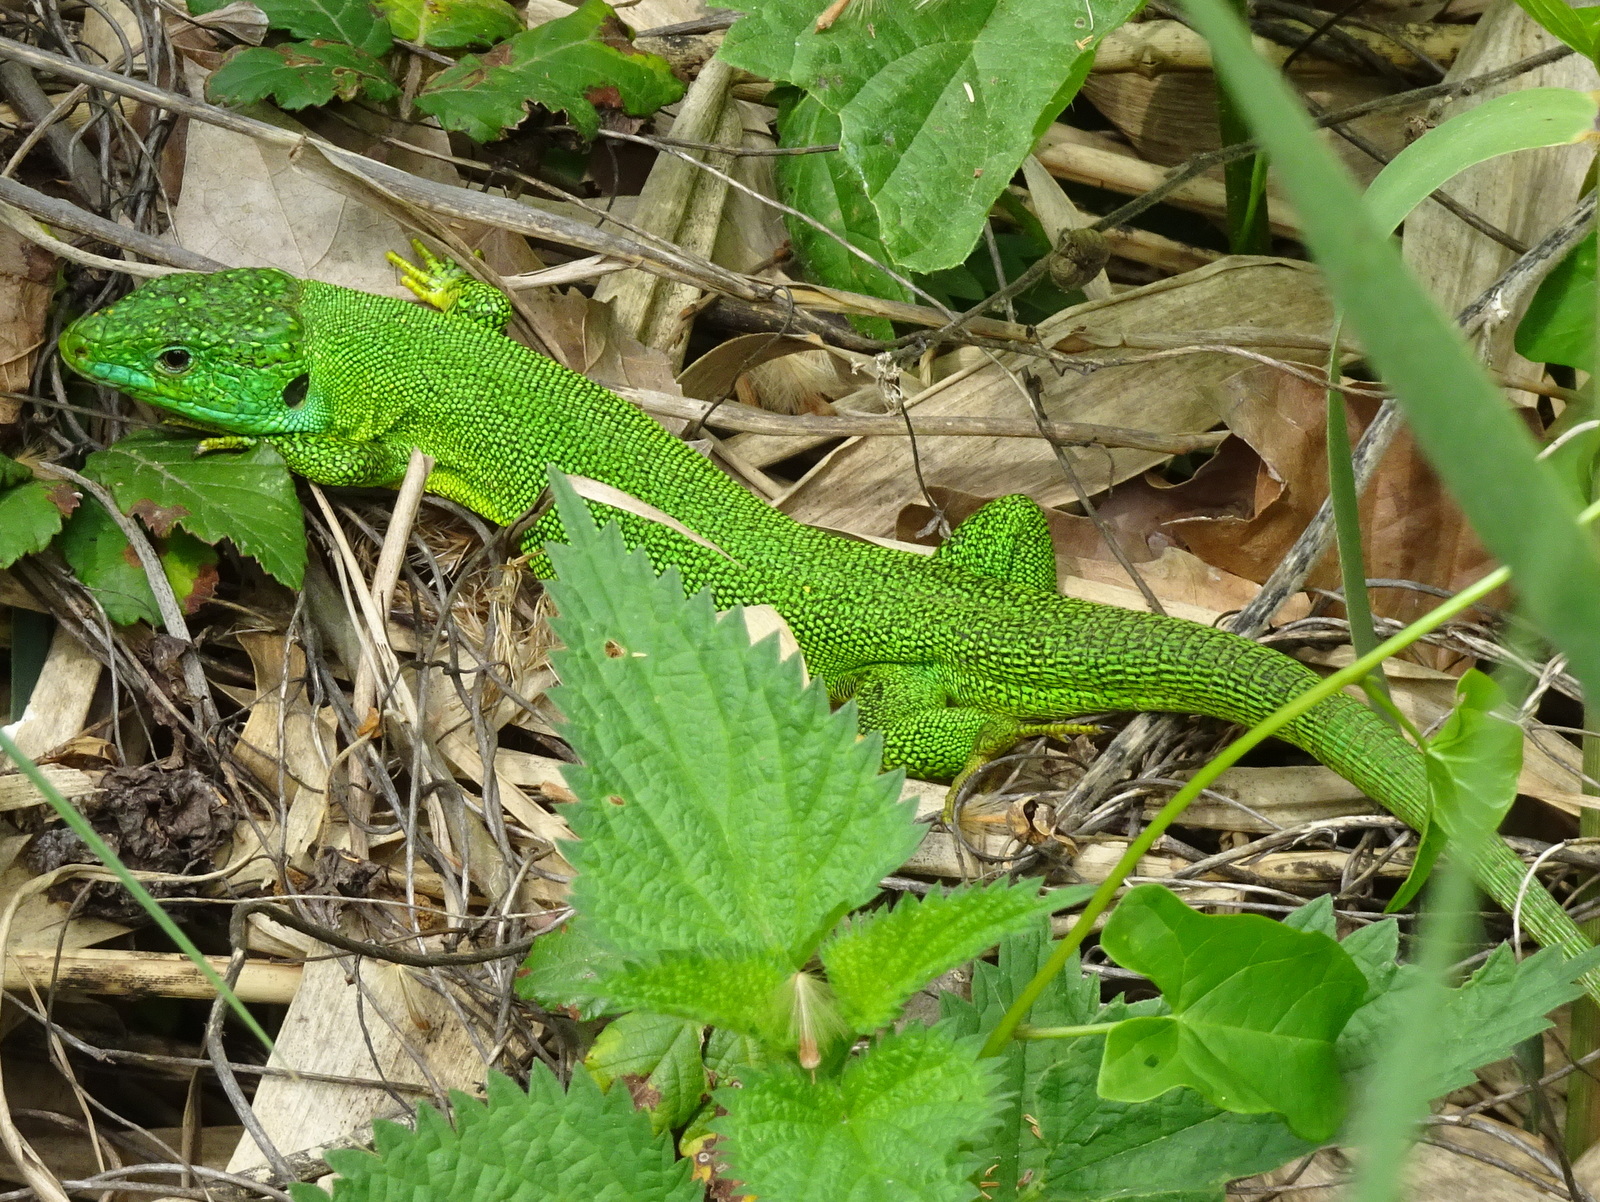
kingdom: Animalia
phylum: Chordata
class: Squamata
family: Lacertidae
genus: Lacerta
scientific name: Lacerta bilineata
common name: Western green lizard
